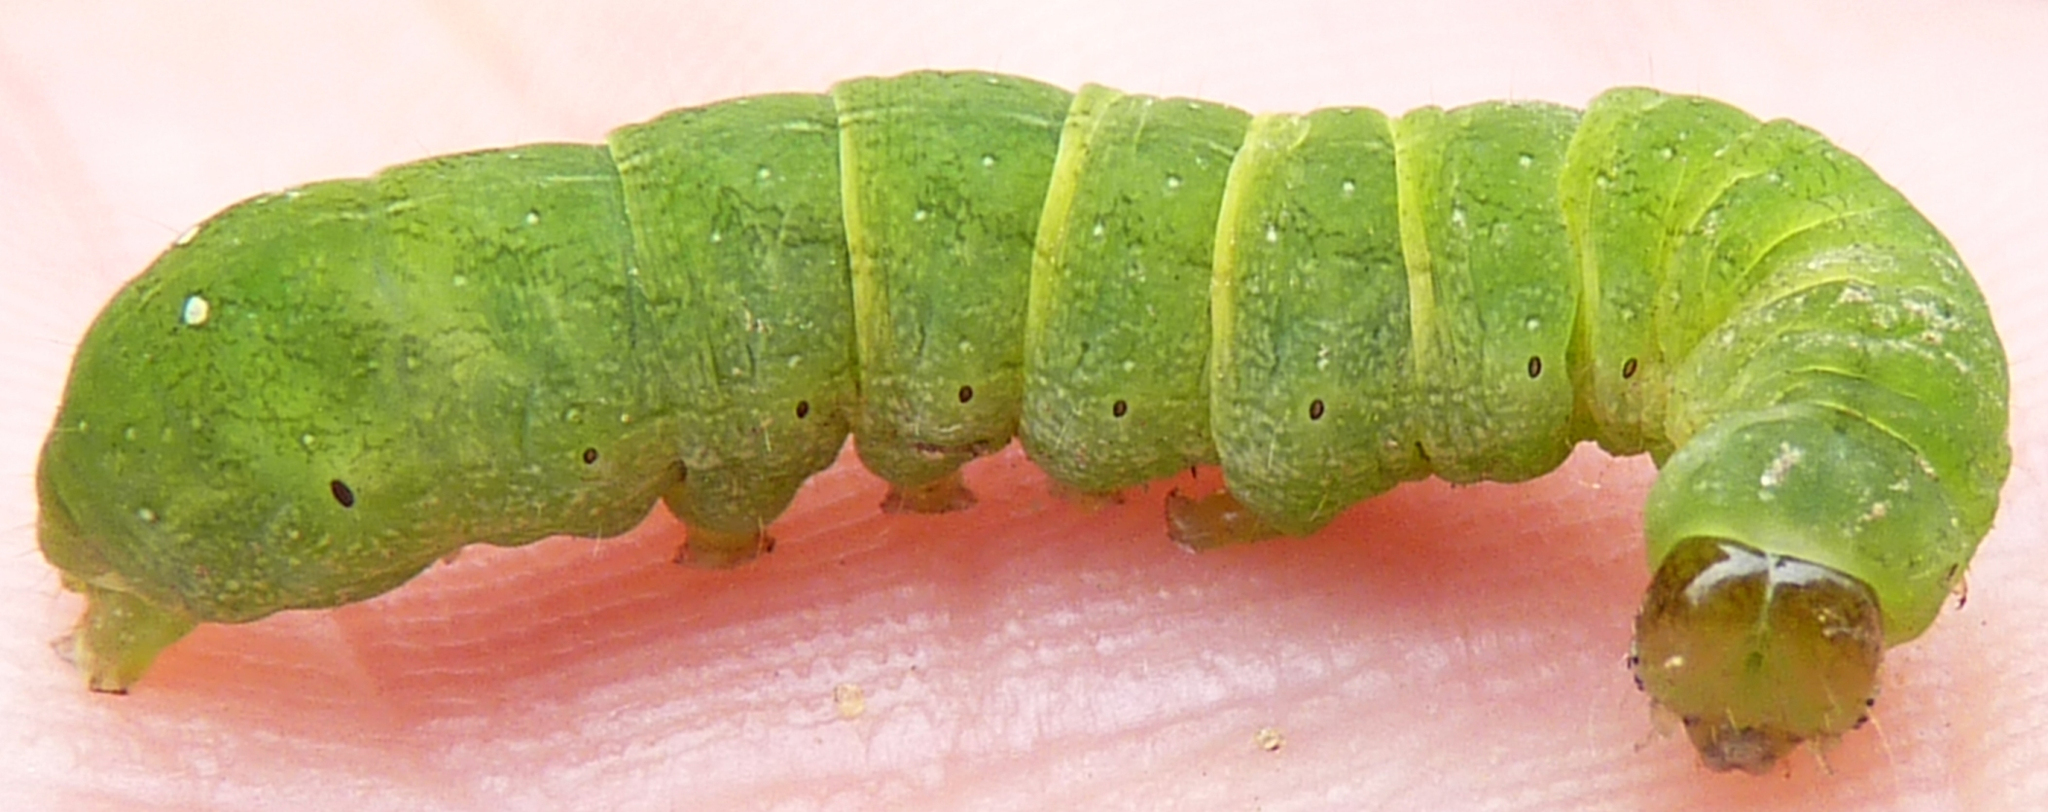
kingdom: Animalia
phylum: Arthropoda
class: Insecta
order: Lepidoptera
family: Noctuidae
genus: Euplexia
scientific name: Euplexia benesimilis
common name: American angle shades
